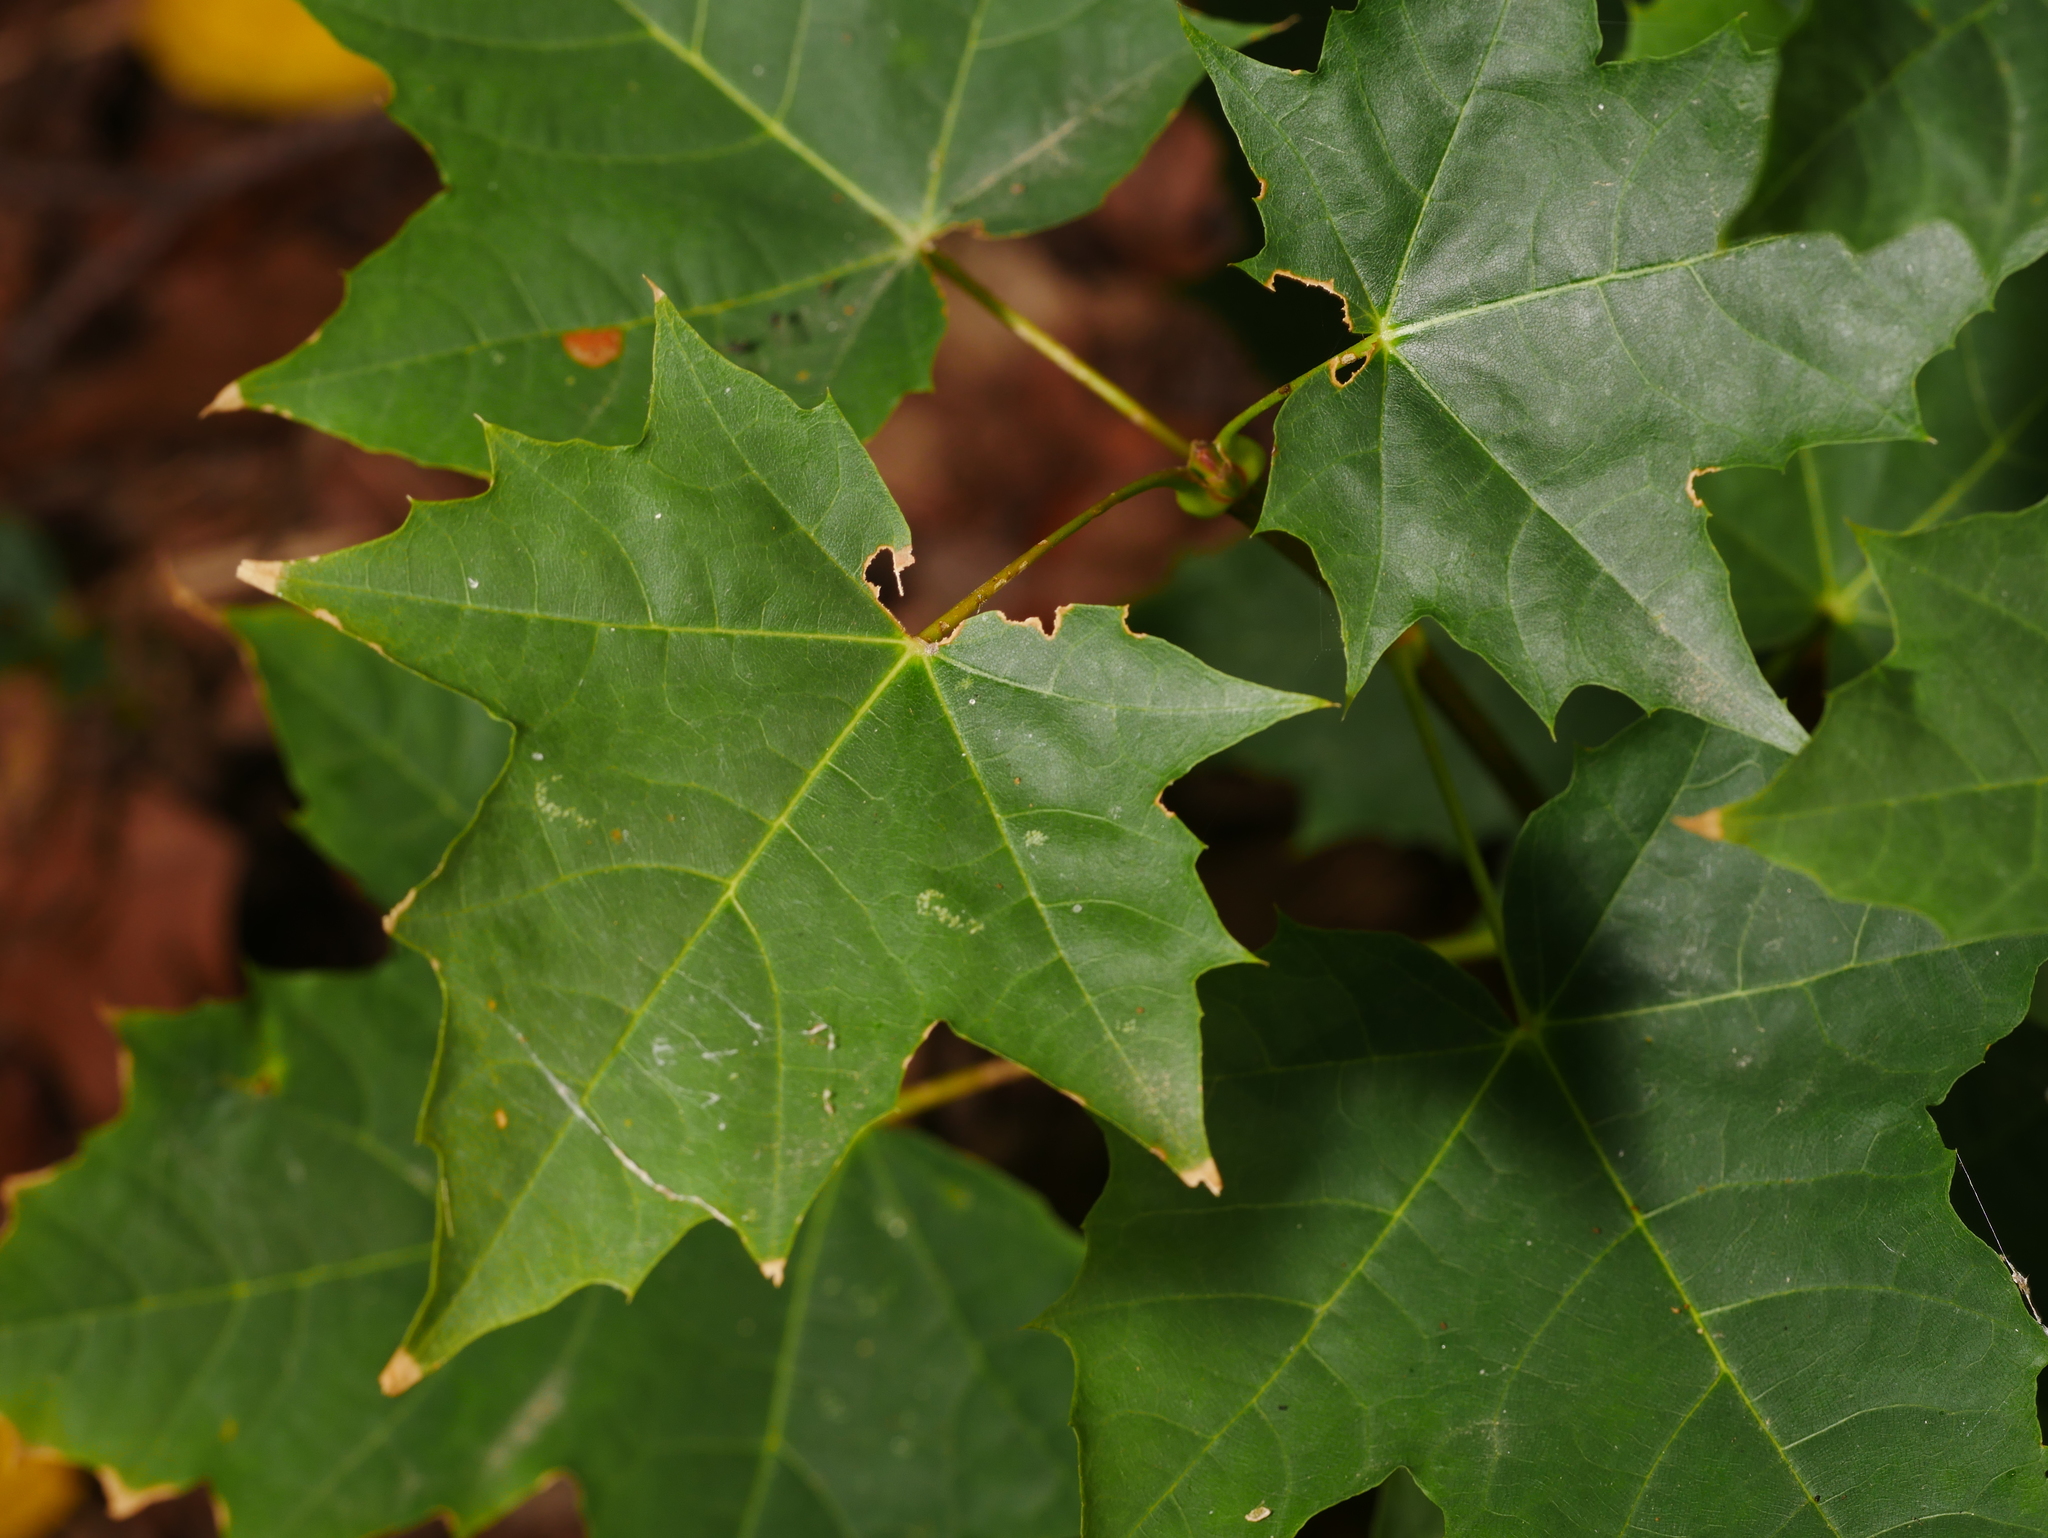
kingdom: Plantae
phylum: Tracheophyta
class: Magnoliopsida
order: Sapindales
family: Sapindaceae
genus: Acer
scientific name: Acer platanoides
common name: Norway maple
